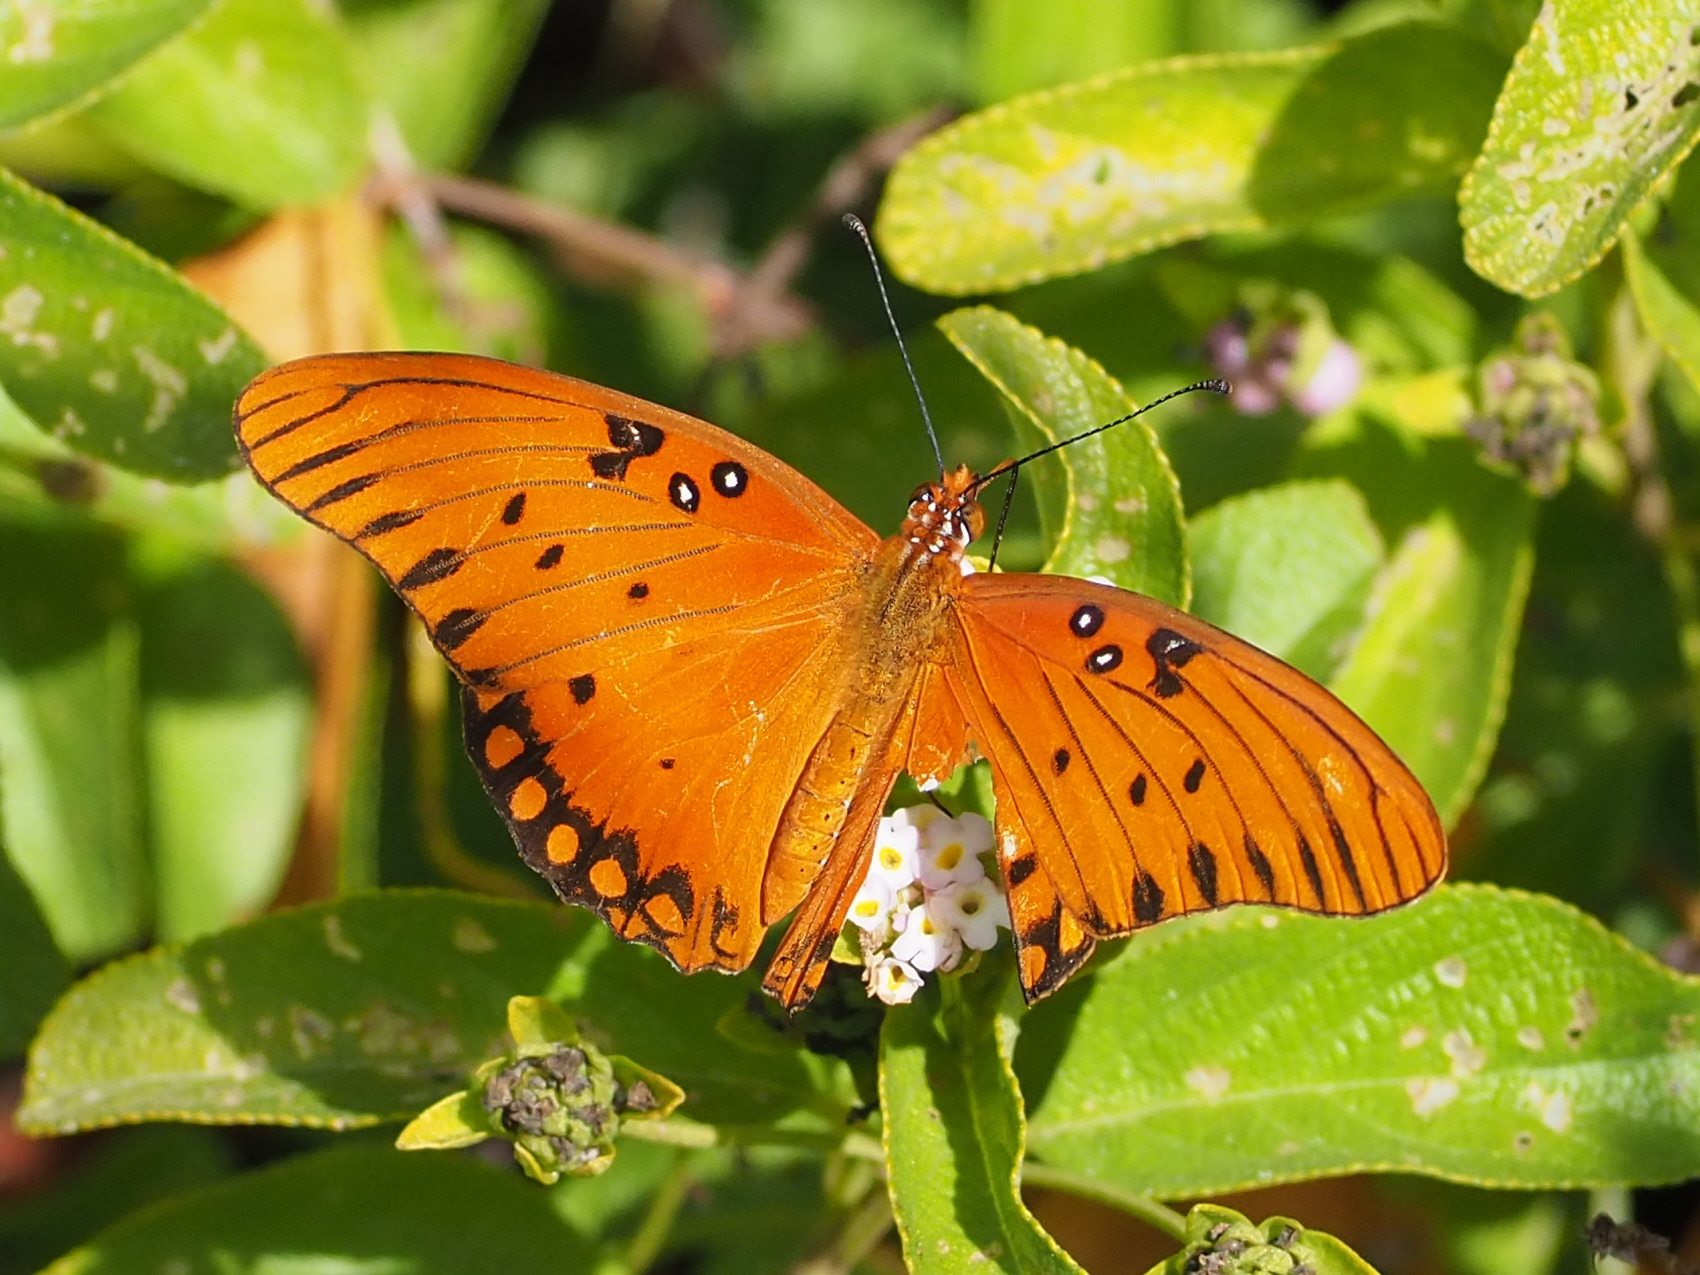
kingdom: Animalia
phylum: Arthropoda
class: Insecta
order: Lepidoptera
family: Nymphalidae
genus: Dione
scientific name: Dione vanillae
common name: Gulf fritillary
